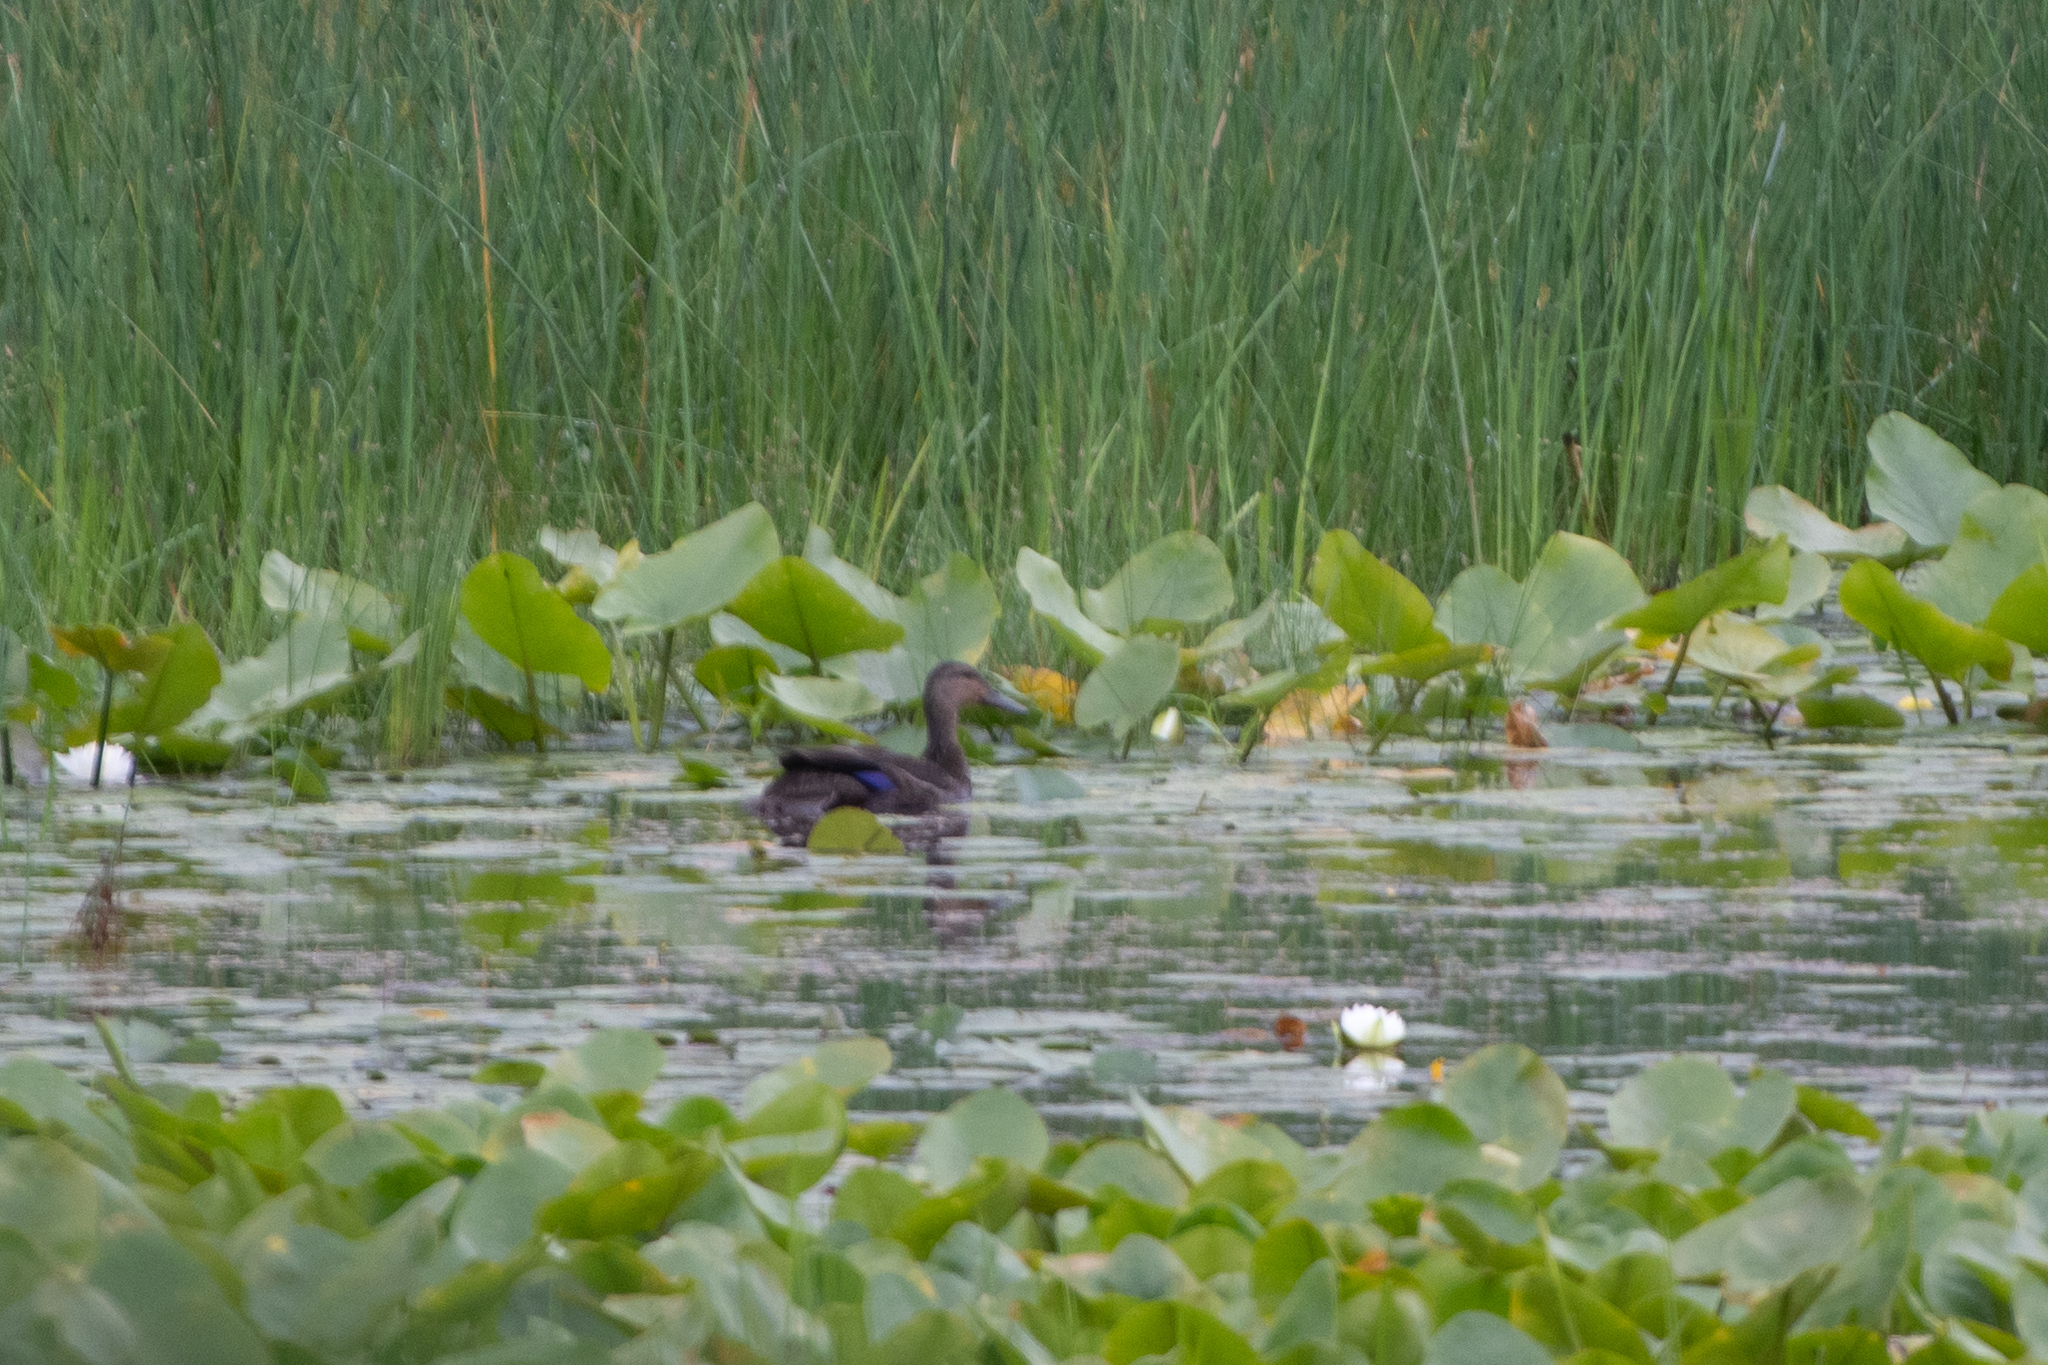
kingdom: Animalia
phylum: Chordata
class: Aves
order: Anseriformes
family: Anatidae
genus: Anas
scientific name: Anas rubripes
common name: American black duck
